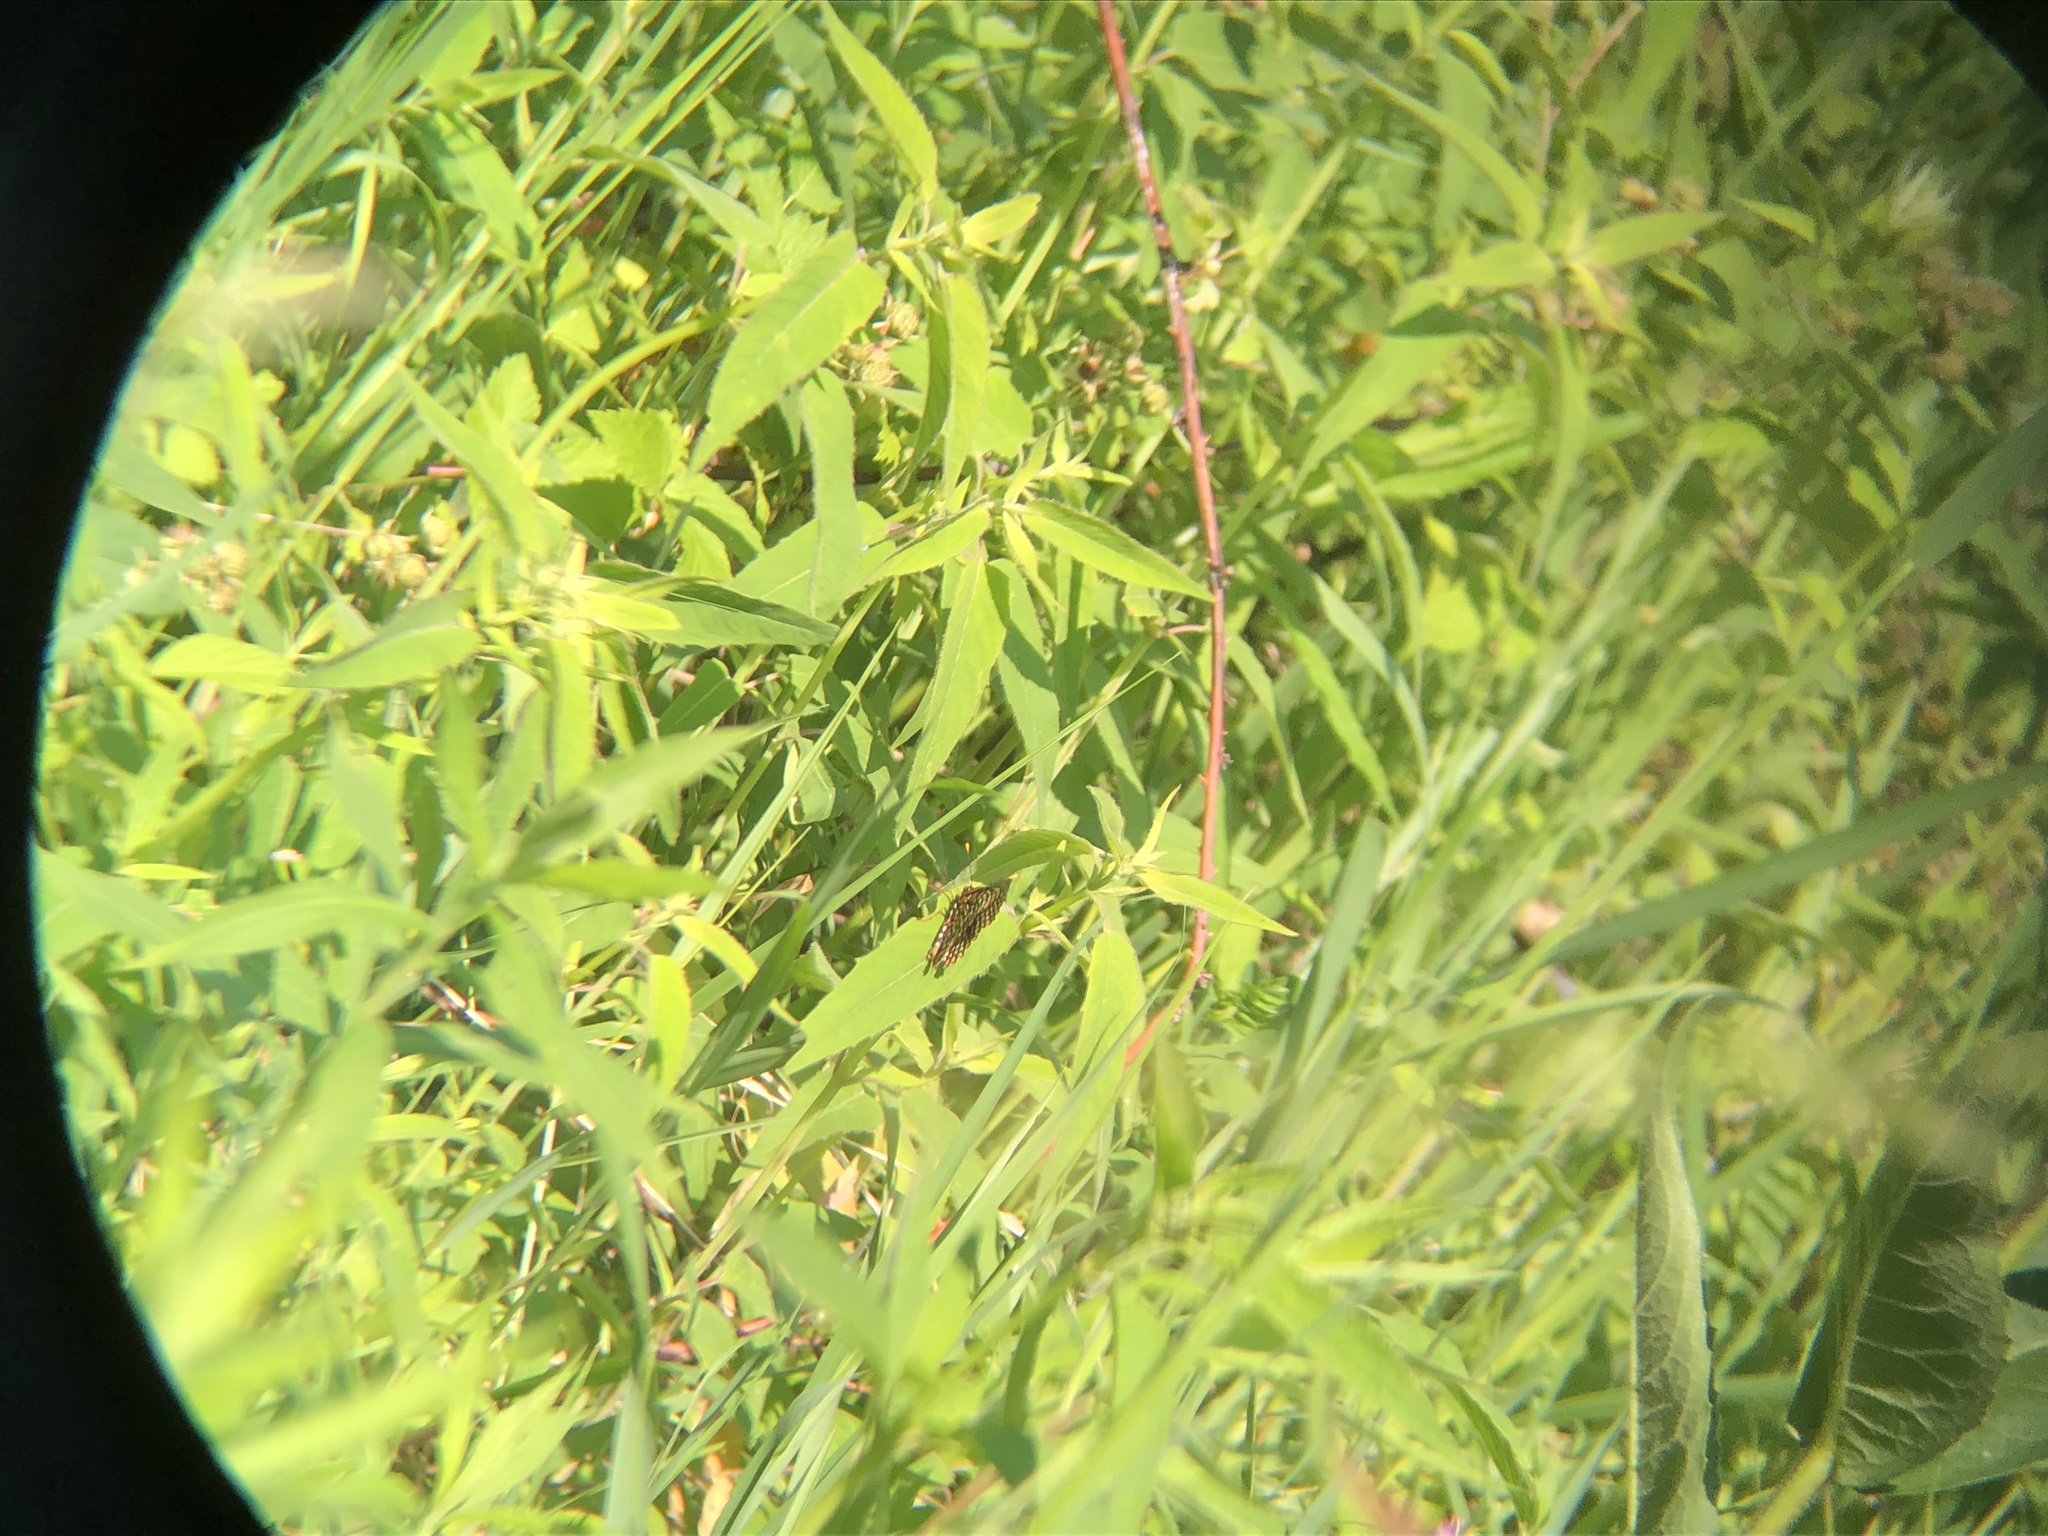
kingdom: Animalia
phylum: Arthropoda
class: Insecta
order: Lepidoptera
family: Nymphalidae
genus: Euphydryas
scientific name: Euphydryas phaeton
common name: Baltimore checkerspot
